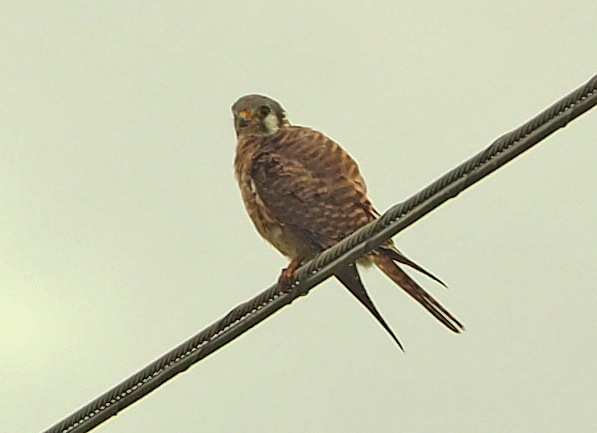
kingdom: Animalia
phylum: Chordata
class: Aves
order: Falconiformes
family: Falconidae
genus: Falco
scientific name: Falco sparverius
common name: American kestrel
